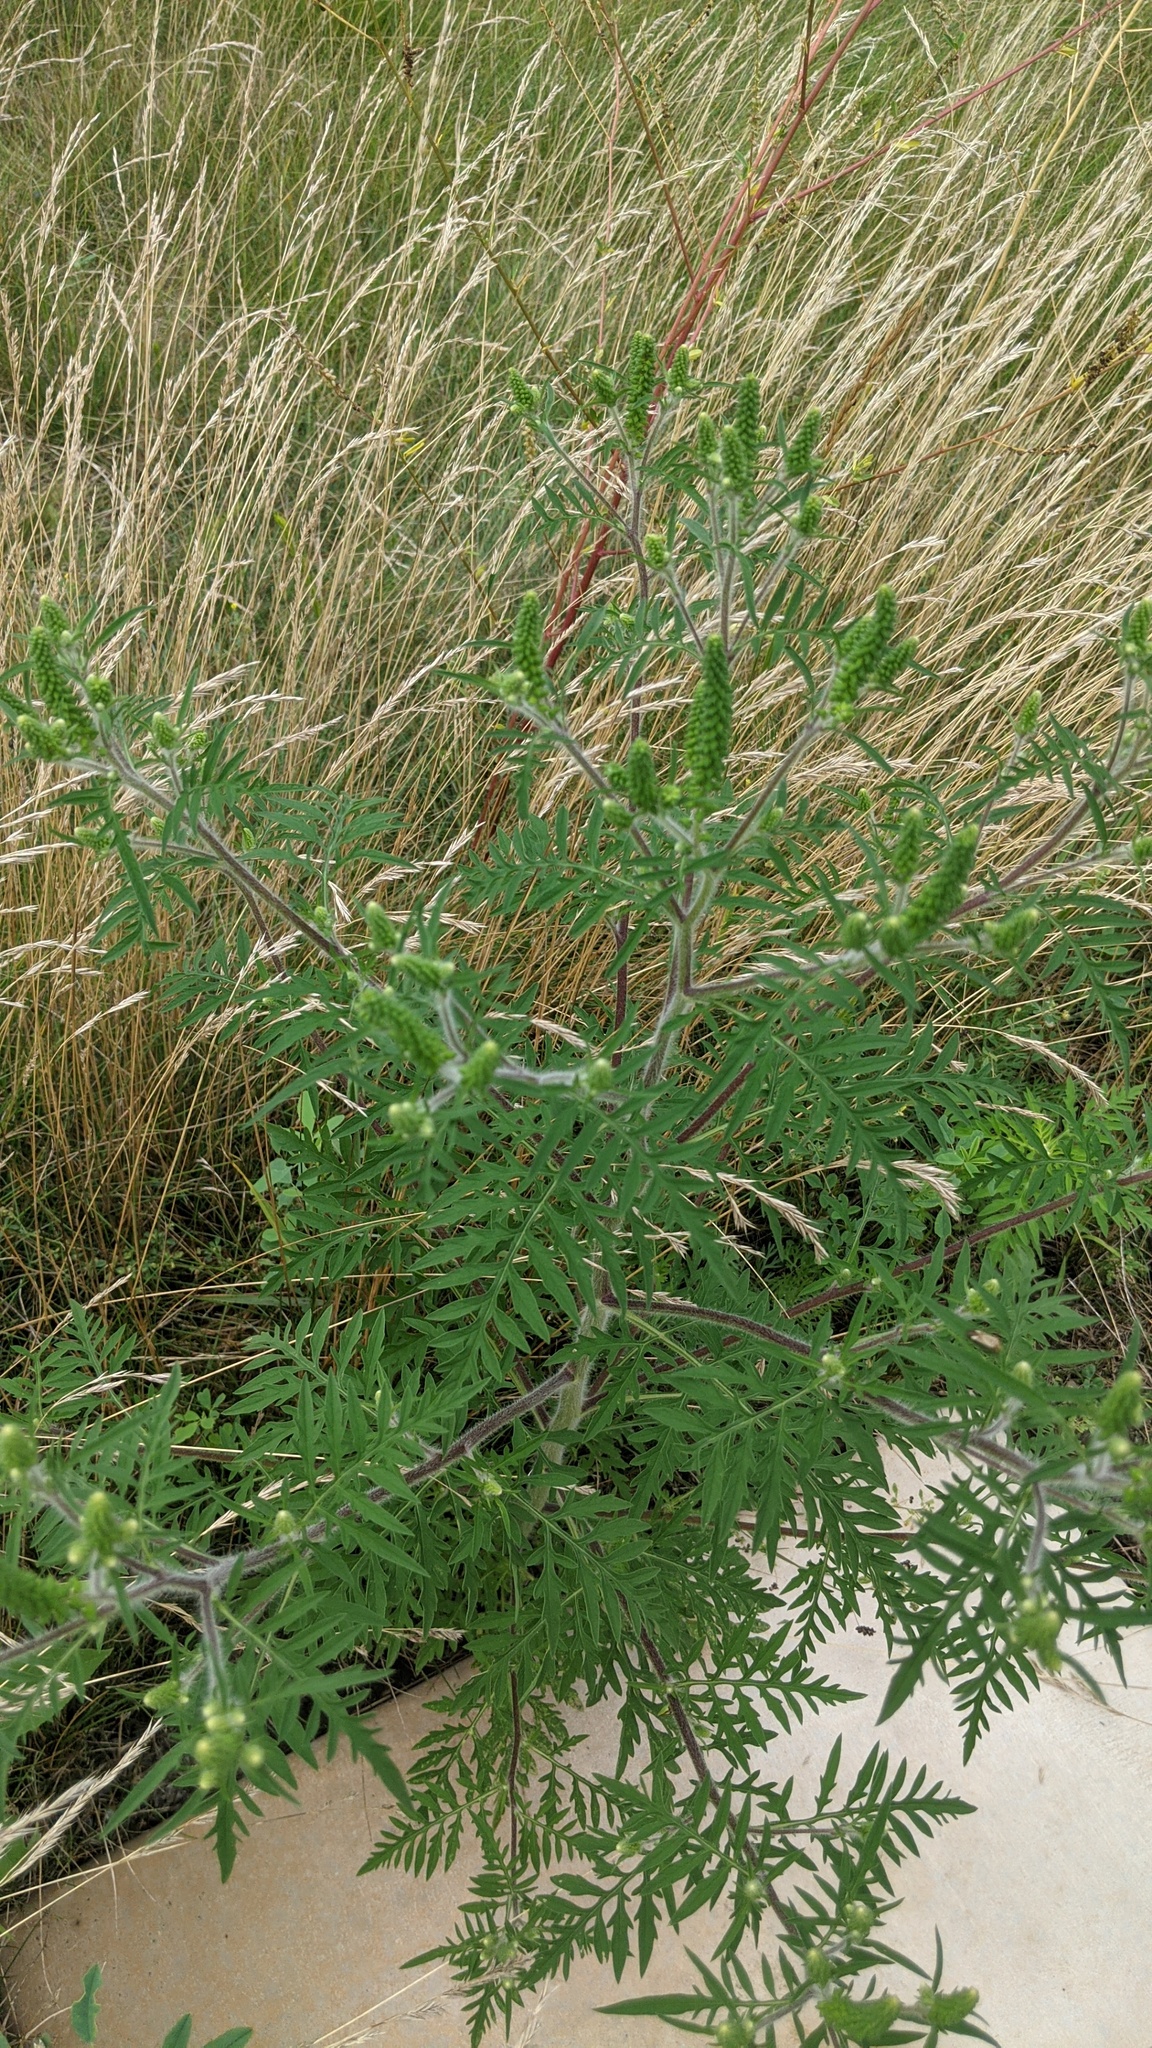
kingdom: Plantae
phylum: Tracheophyta
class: Magnoliopsida
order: Asterales
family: Asteraceae
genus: Ambrosia
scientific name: Ambrosia artemisiifolia
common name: Annual ragweed
